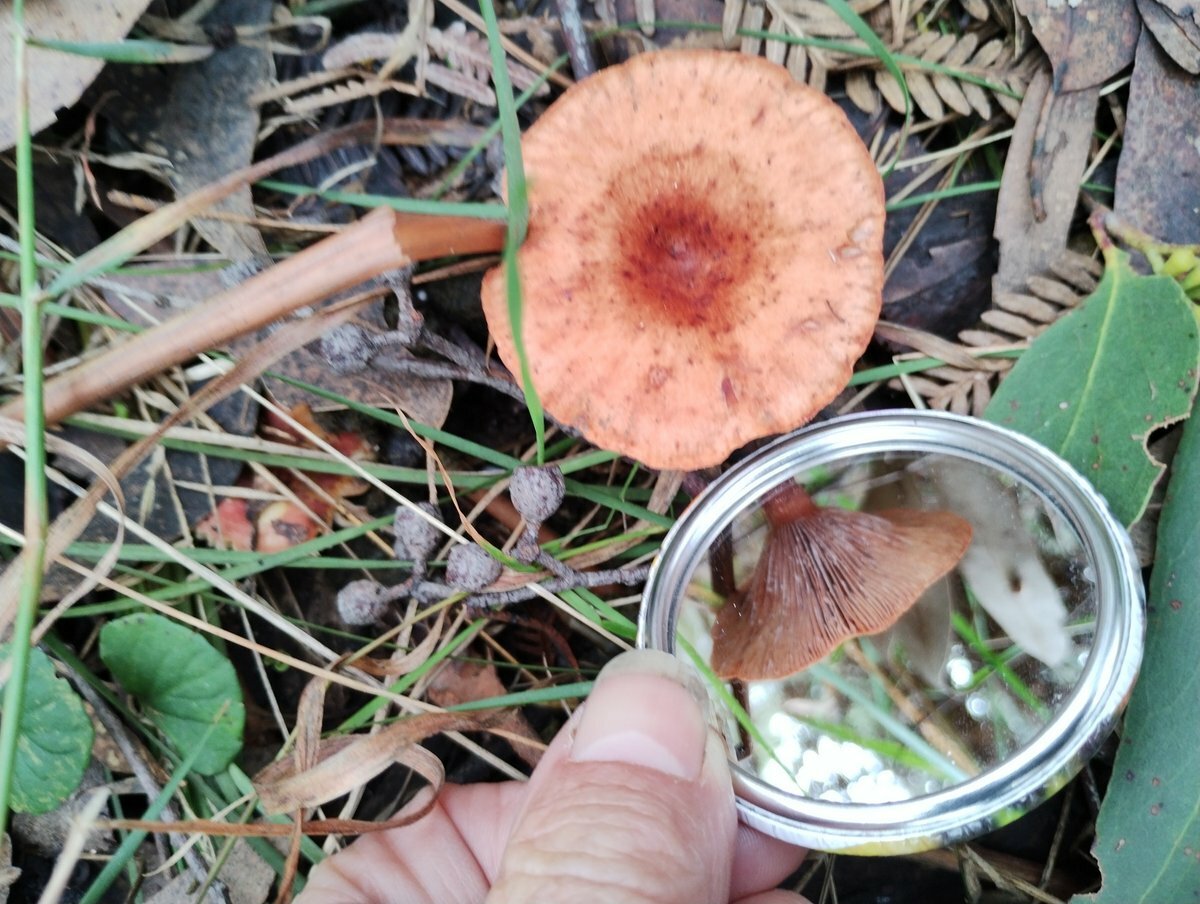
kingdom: Fungi
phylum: Basidiomycota
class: Agaricomycetes
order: Russulales
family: Russulaceae
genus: Lactarius
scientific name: Lactarius eucalypti
